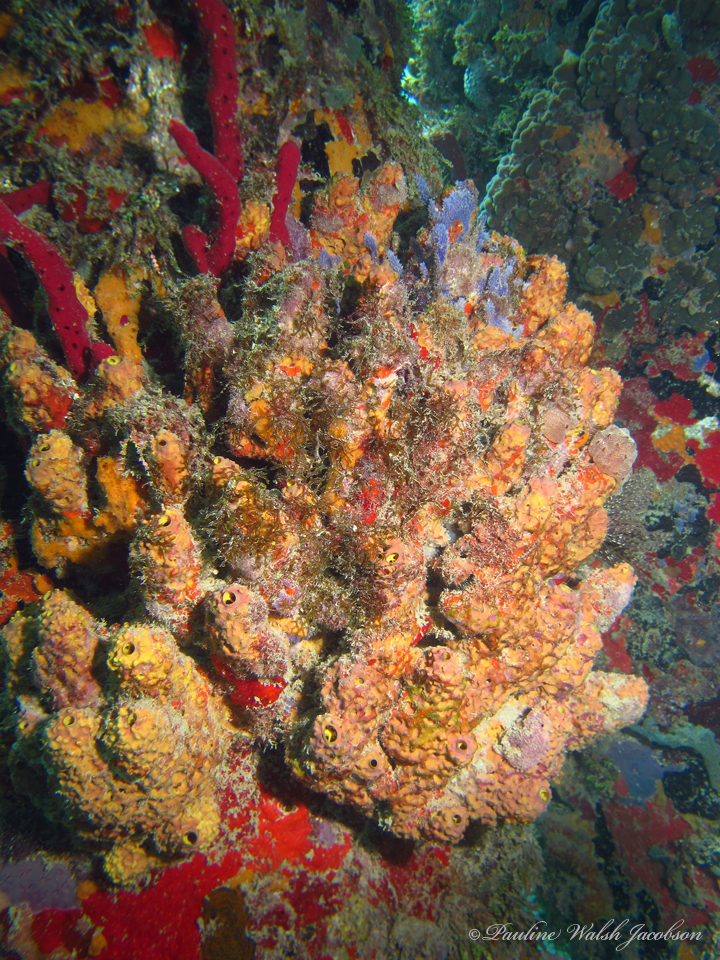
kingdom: Animalia
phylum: Porifera
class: Demospongiae
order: Verongiida
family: Aplysinidae
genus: Aiolochroia
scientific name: Aiolochroia crassa
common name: Branching tube sponge
